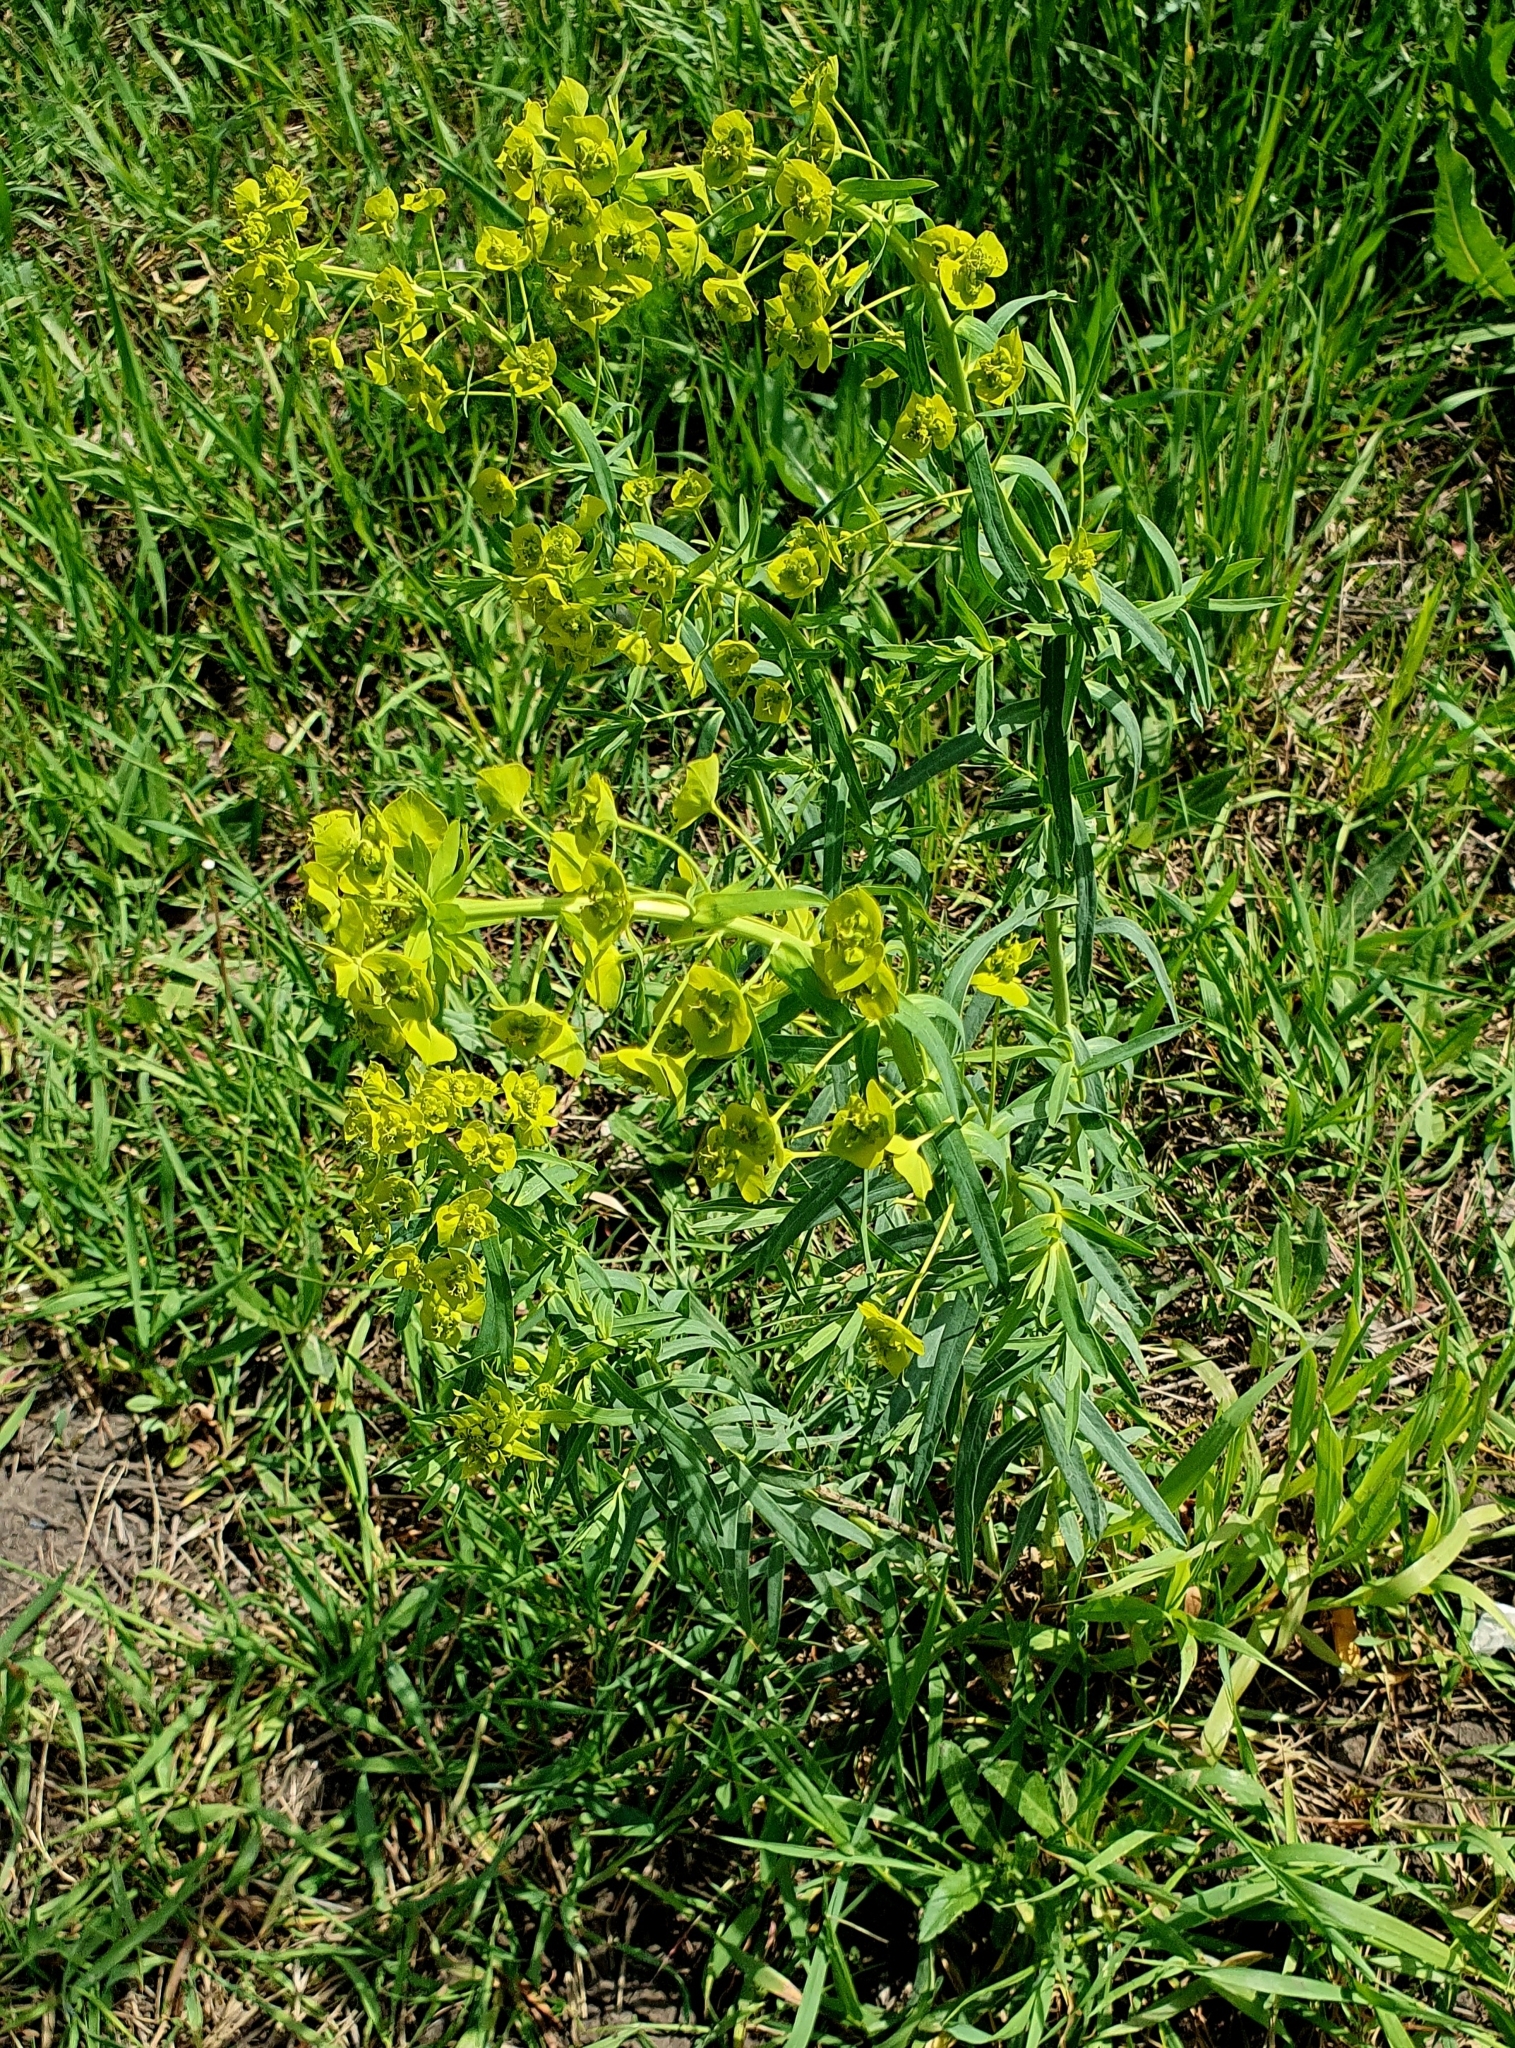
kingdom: Plantae
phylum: Tracheophyta
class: Magnoliopsida
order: Malpighiales
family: Euphorbiaceae
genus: Euphorbia
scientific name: Euphorbia virgata
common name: Leafy spurge
